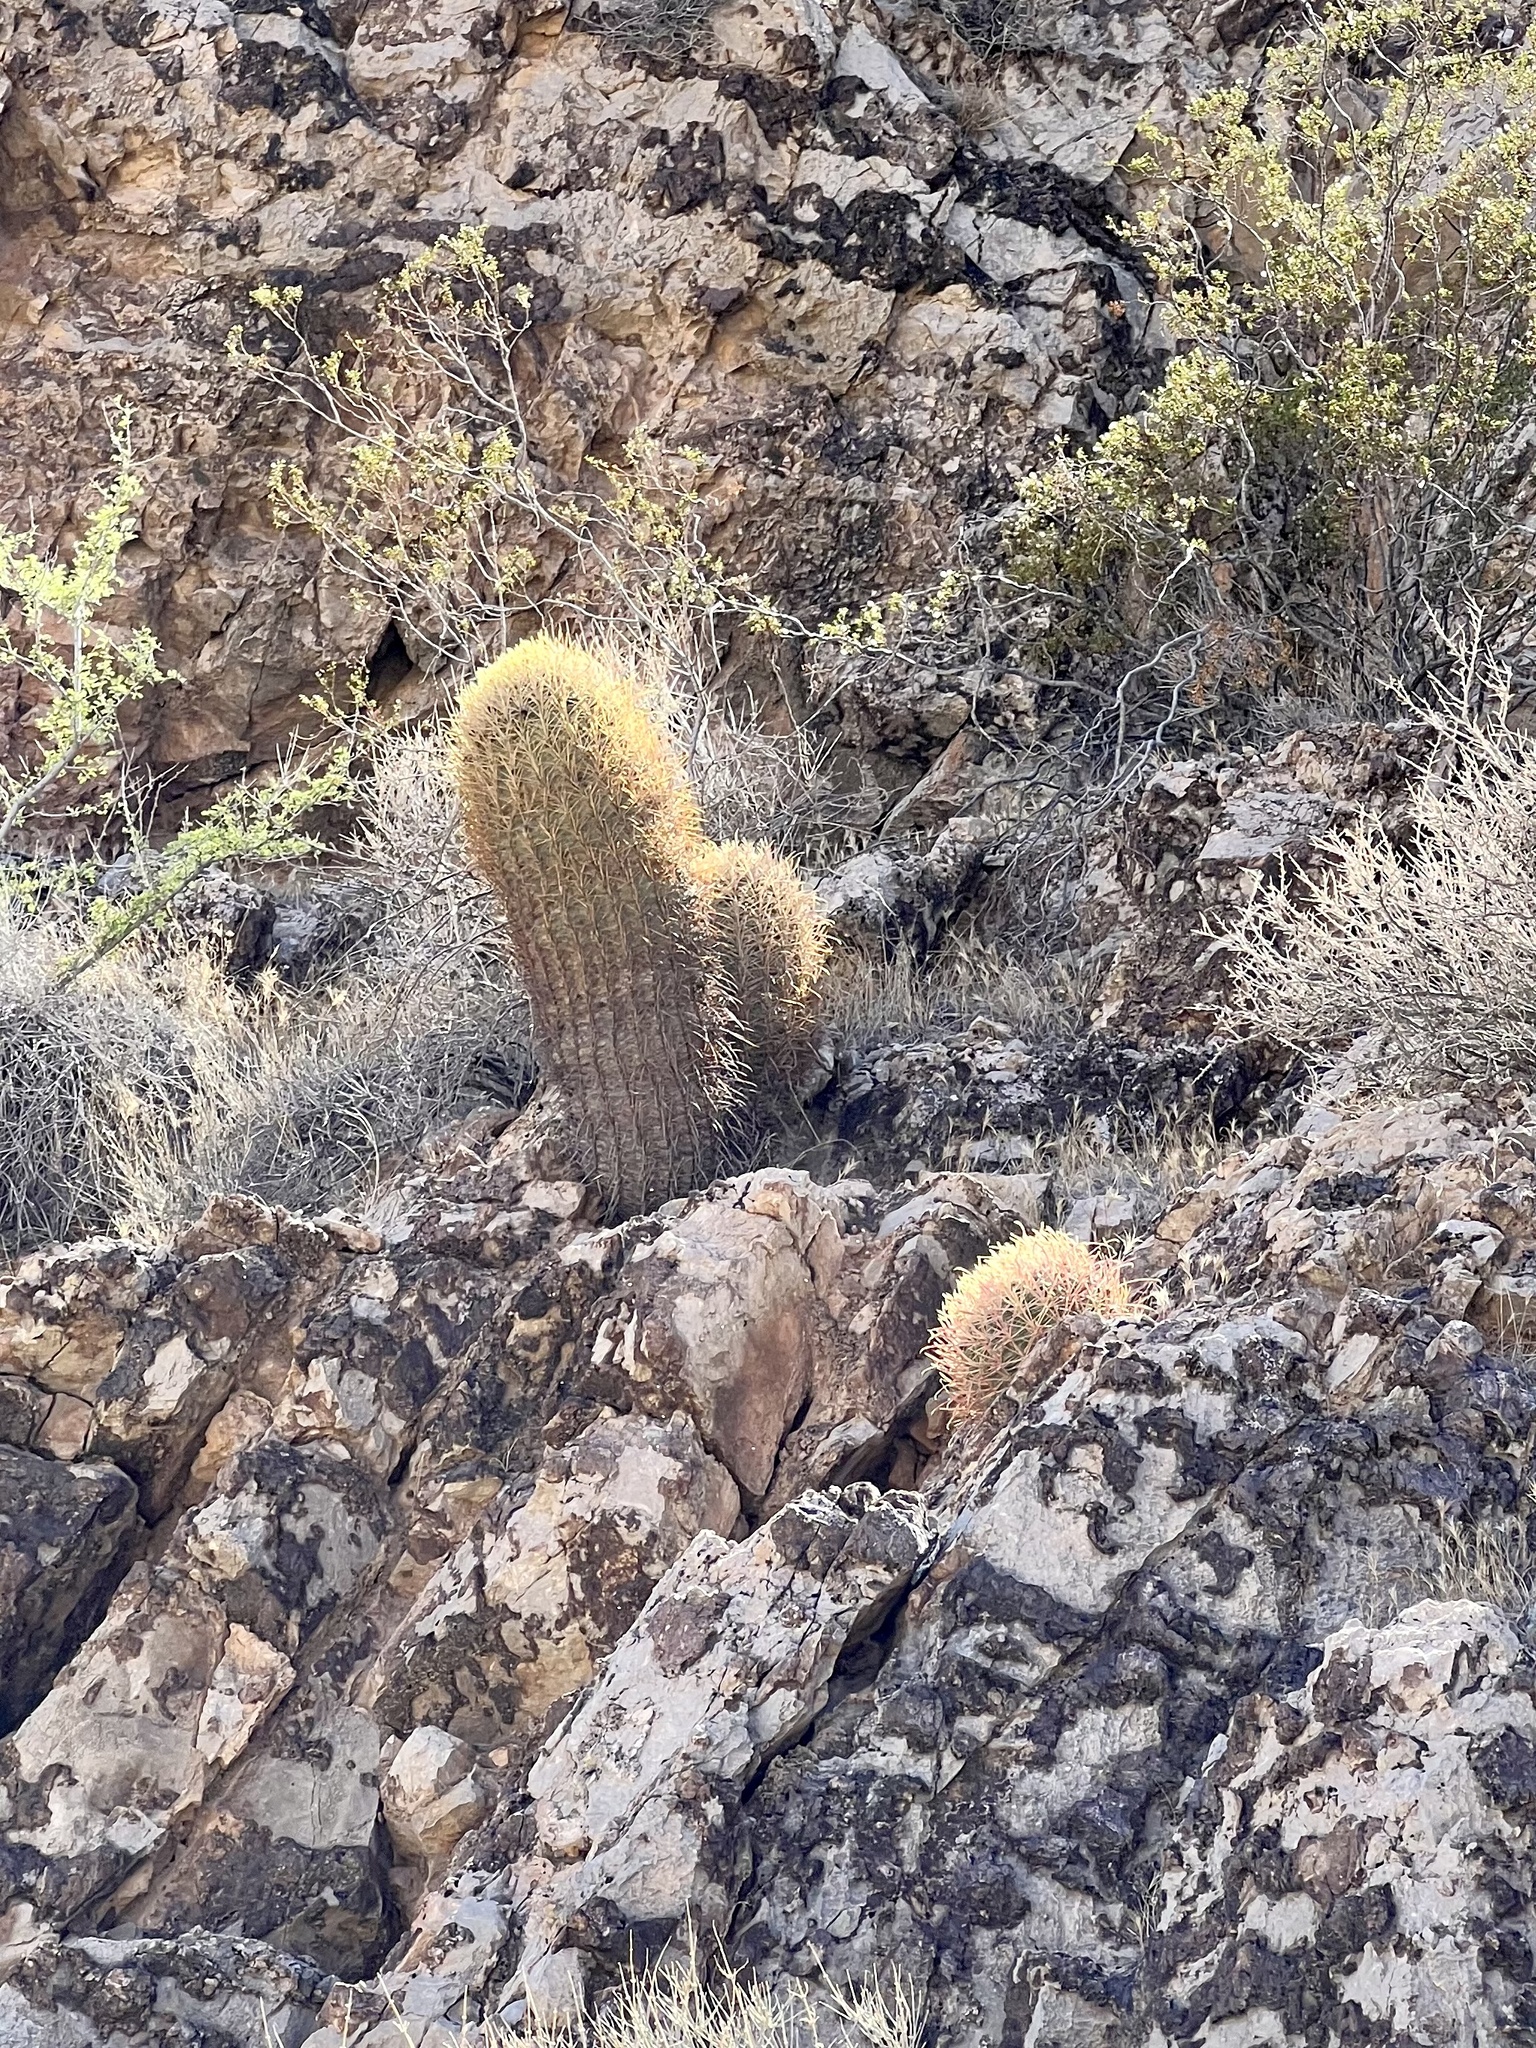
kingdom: Plantae
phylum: Tracheophyta
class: Magnoliopsida
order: Caryophyllales
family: Cactaceae
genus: Ferocactus
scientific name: Ferocactus cylindraceus
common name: California barrel cactus
